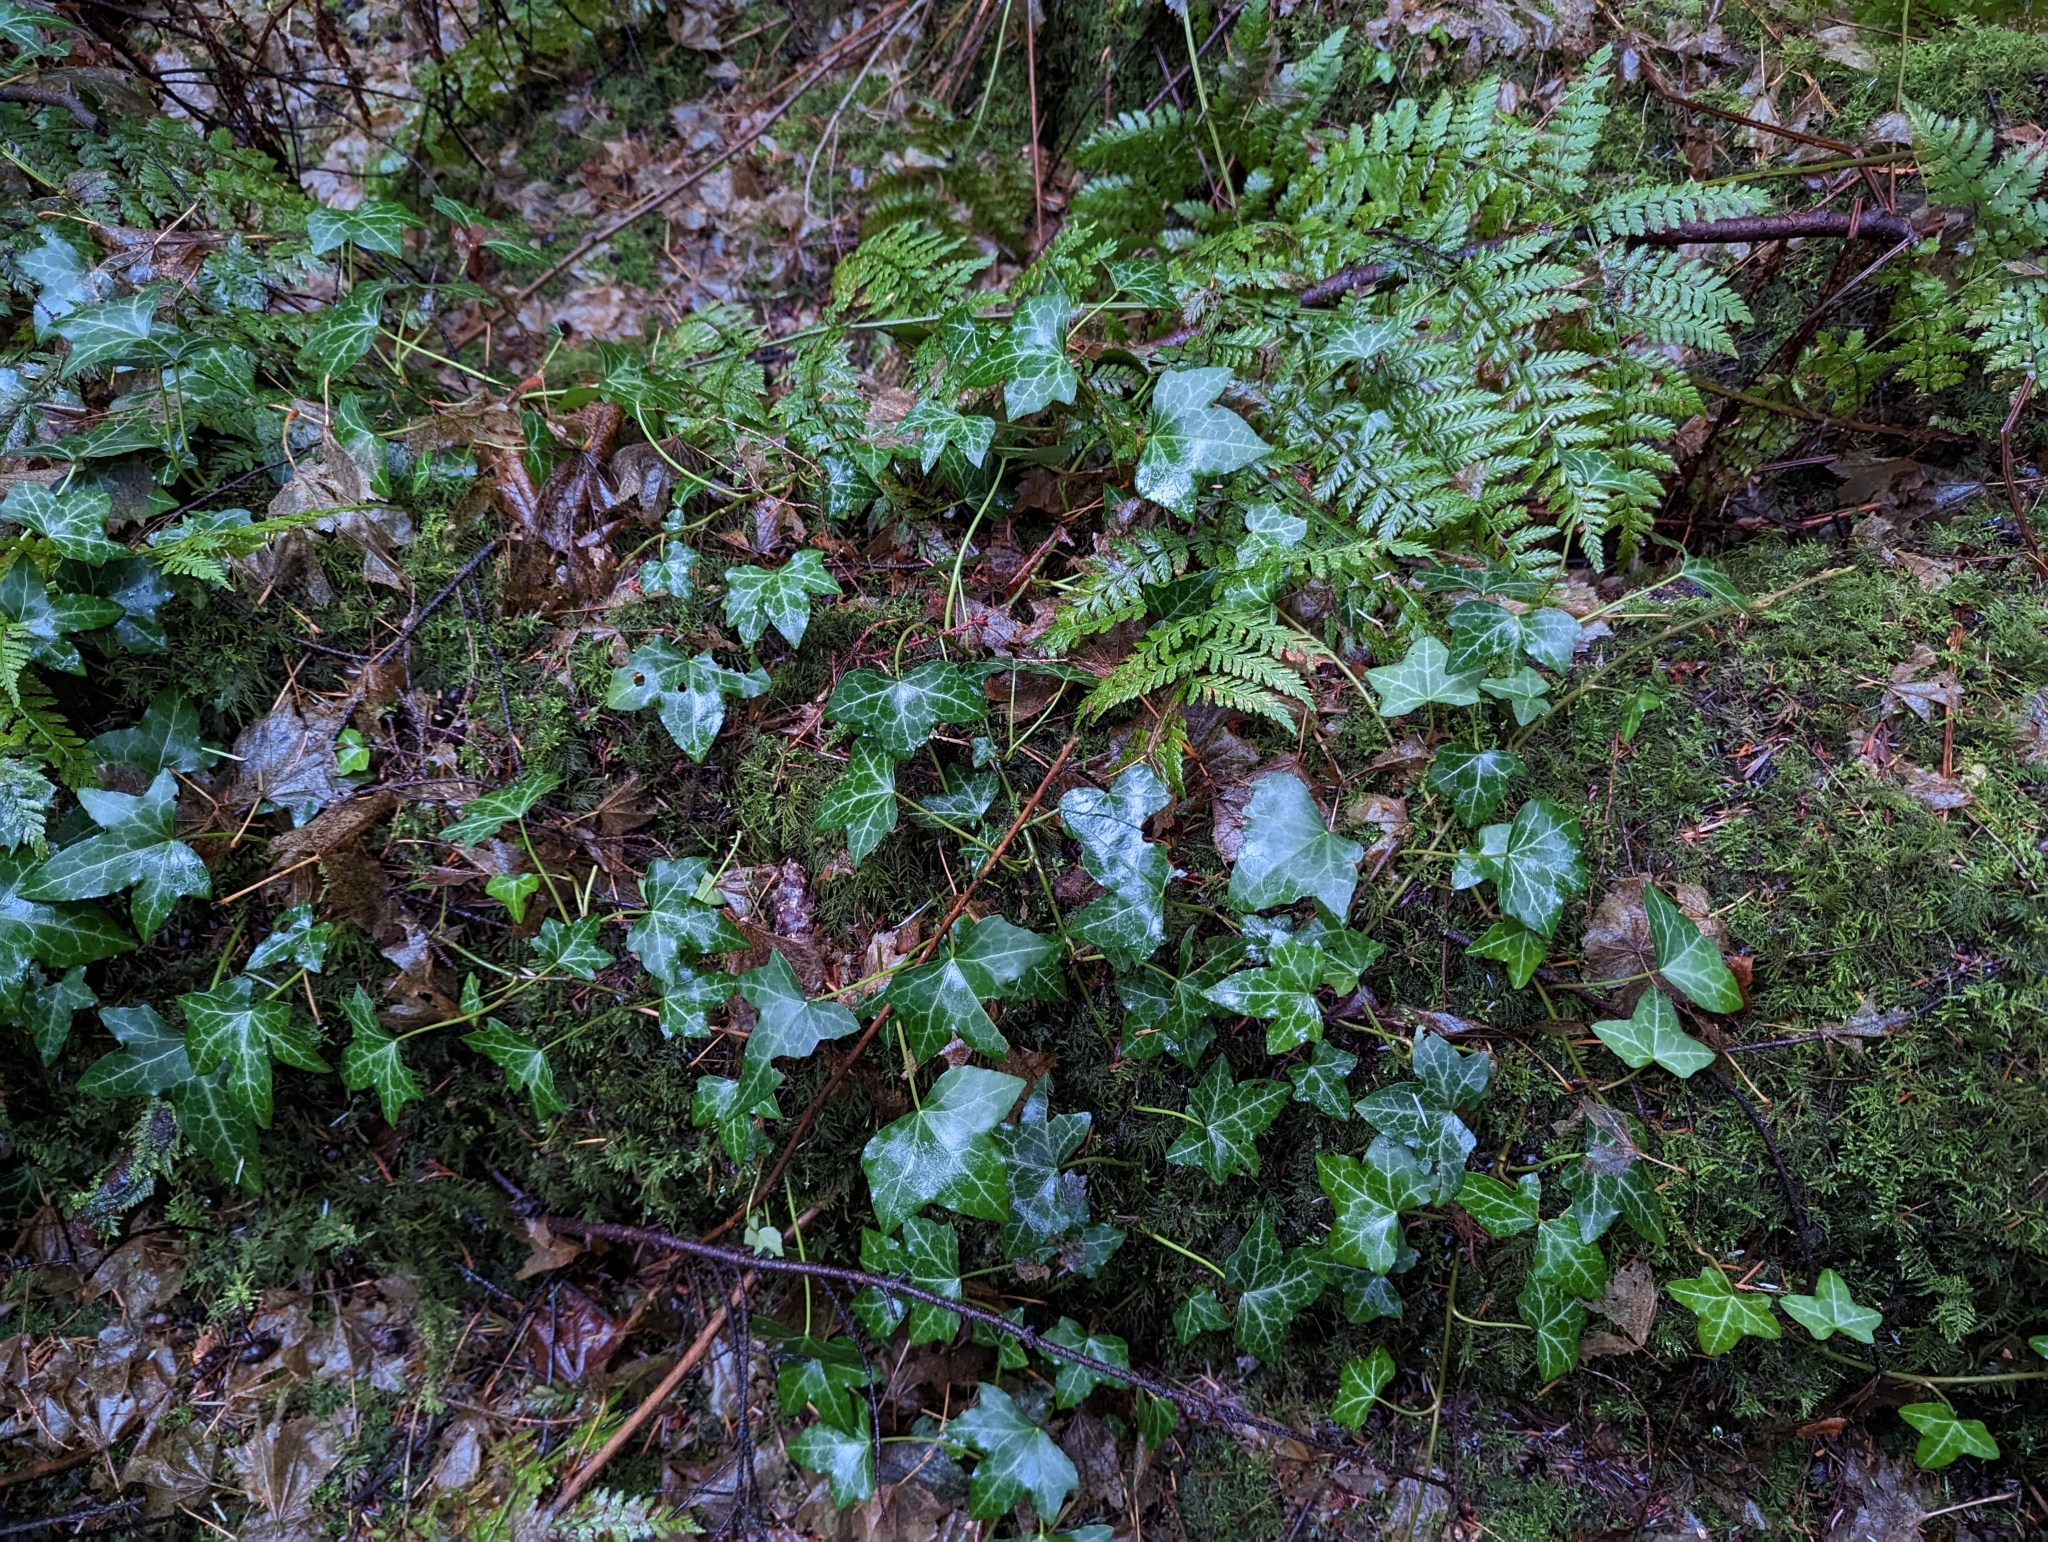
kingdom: Plantae
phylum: Tracheophyta
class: Magnoliopsida
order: Apiales
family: Araliaceae
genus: Hedera
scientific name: Hedera helix
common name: Ivy
